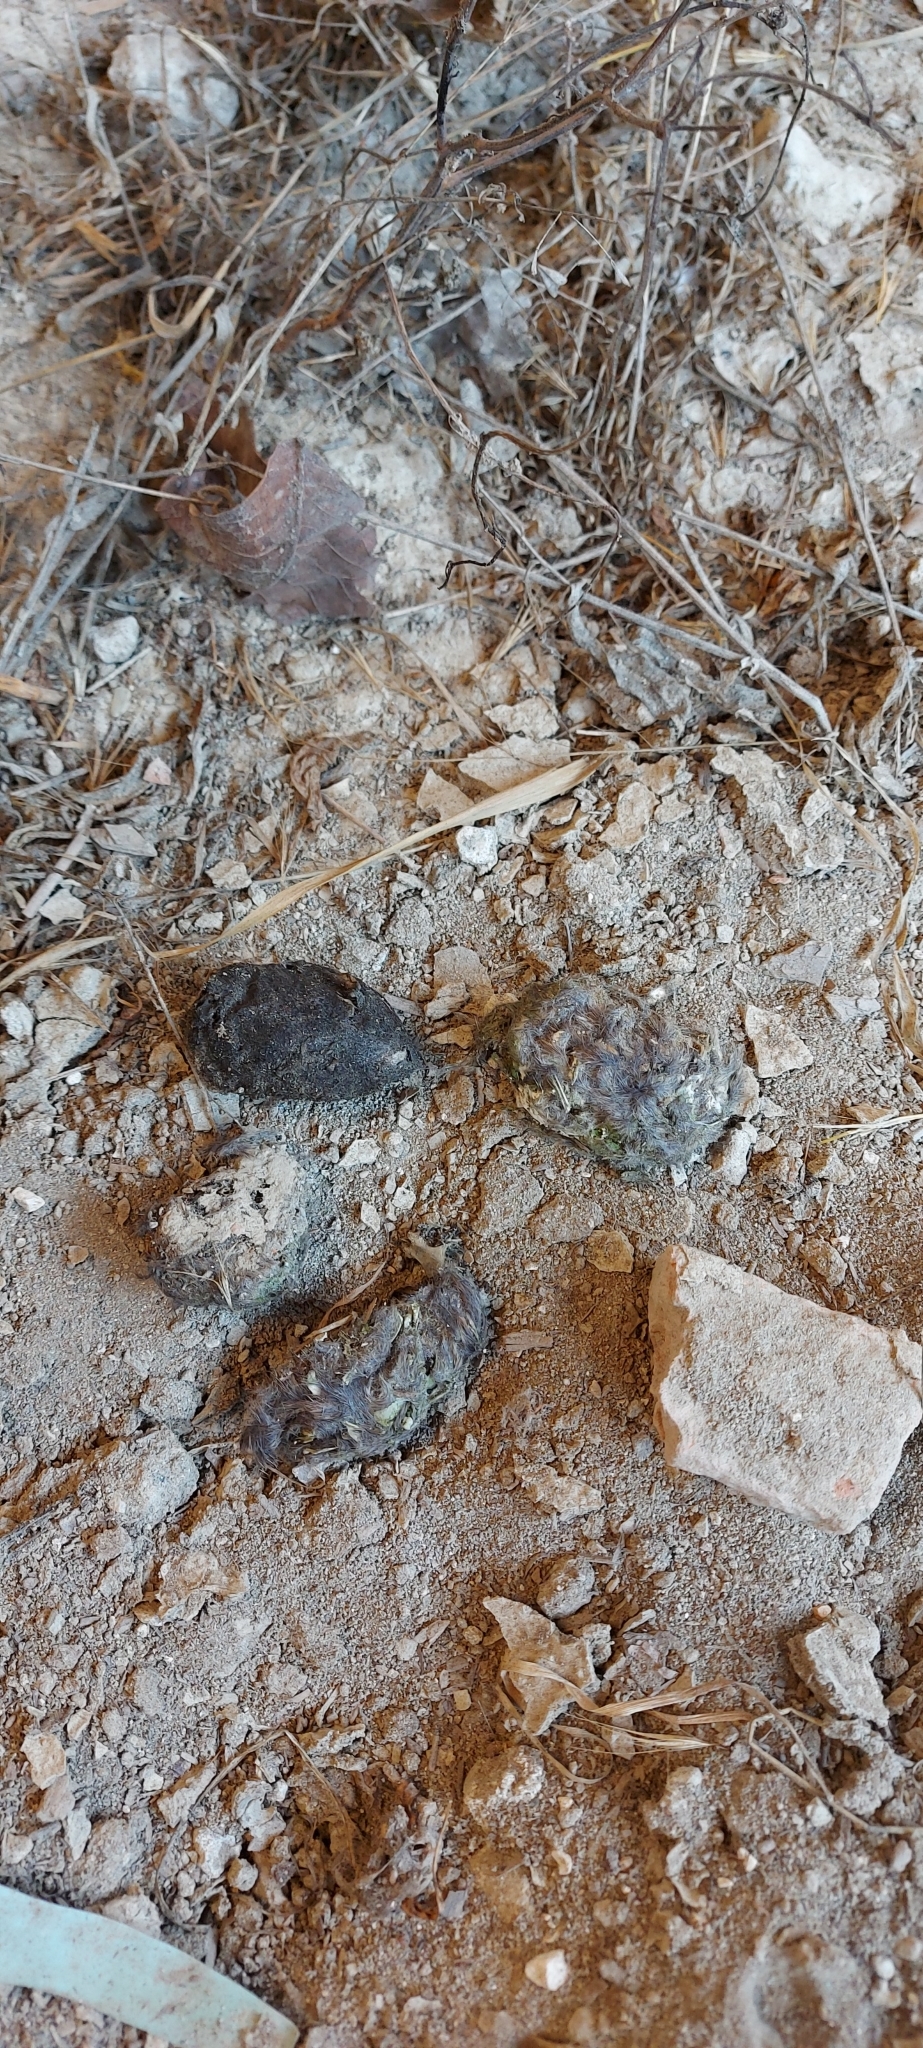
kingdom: Animalia
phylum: Chordata
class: Aves
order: Strigiformes
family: Tytonidae
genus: Tyto
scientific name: Tyto alba
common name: Barn owl
